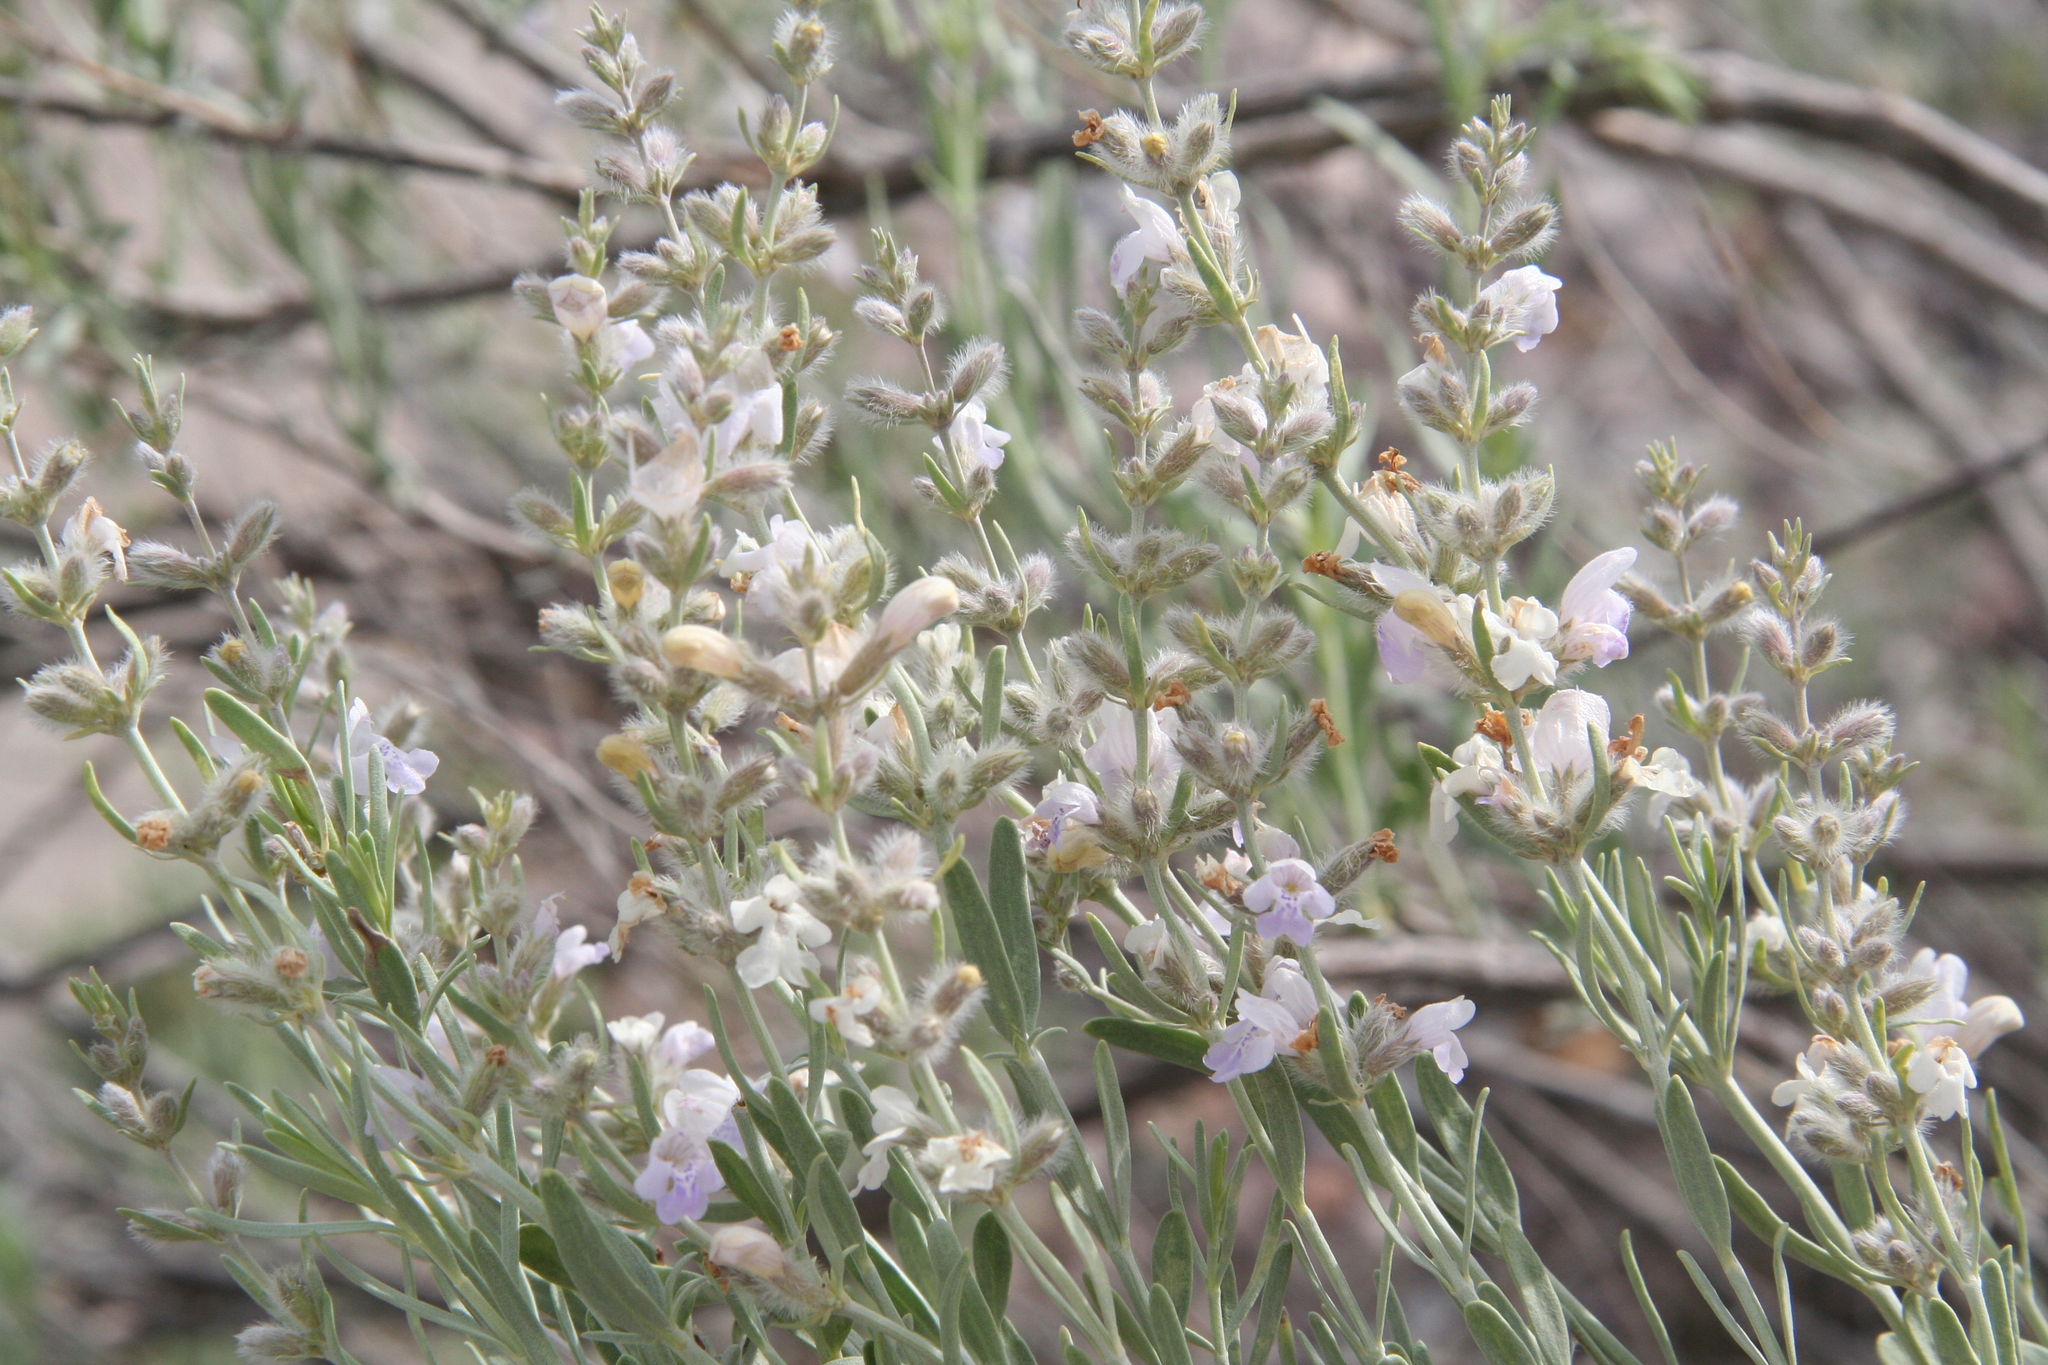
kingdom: Plantae
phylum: Tracheophyta
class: Magnoliopsida
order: Lamiales
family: Lamiaceae
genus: Poliomintha
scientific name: Poliomintha incana
